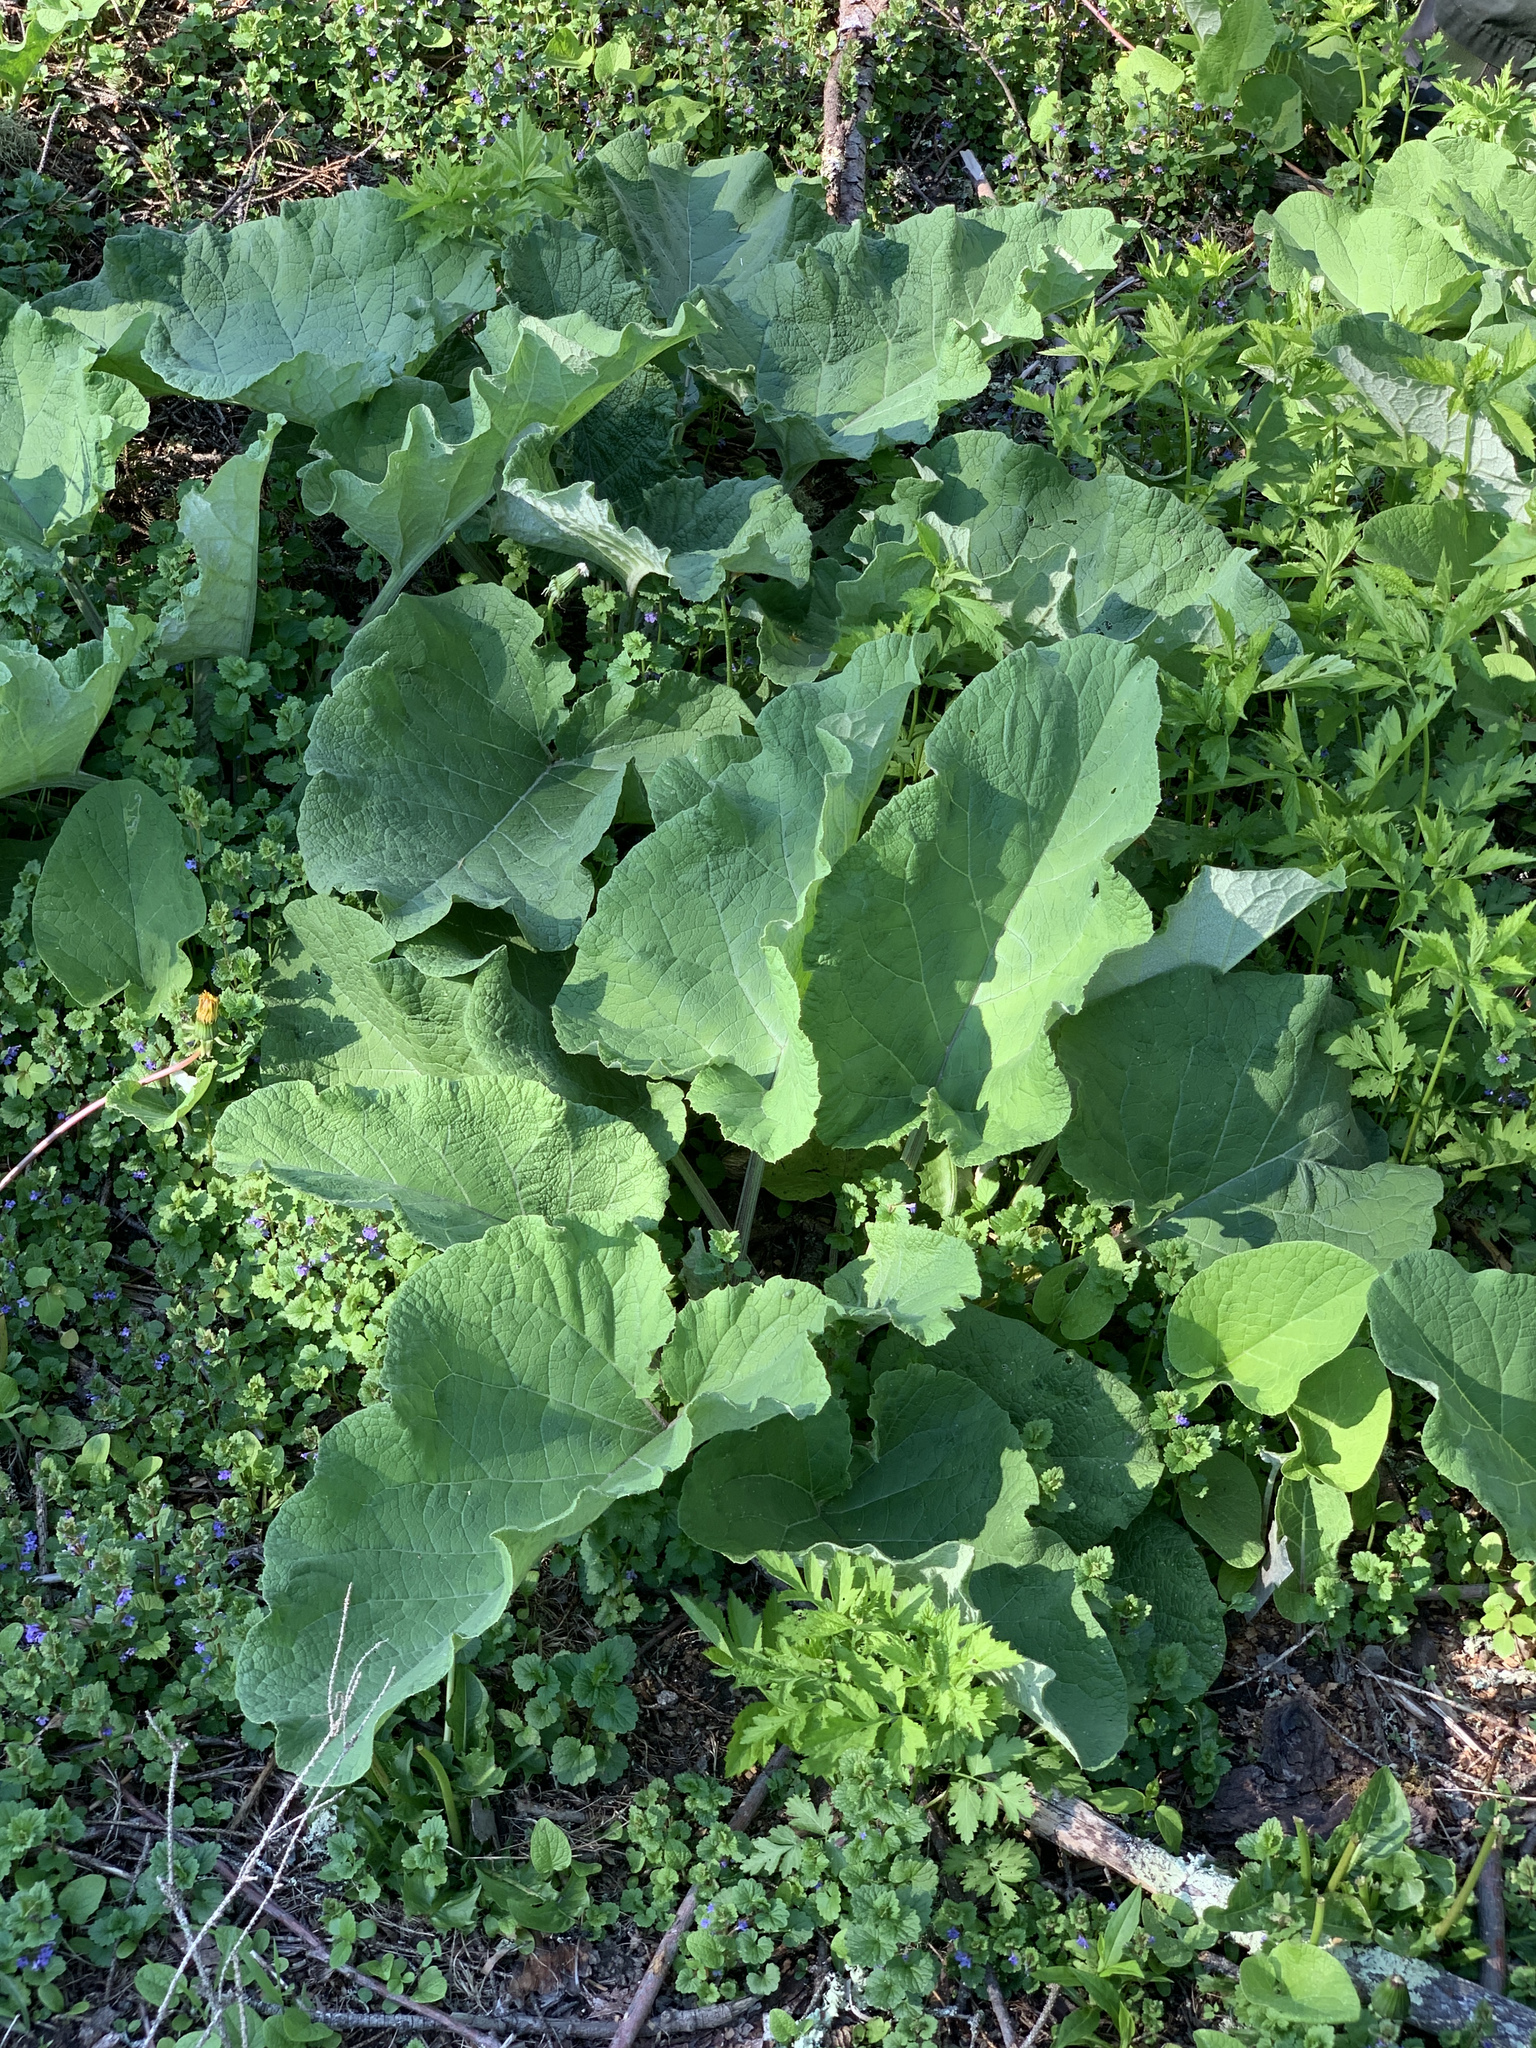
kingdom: Plantae
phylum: Tracheophyta
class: Magnoliopsida
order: Asterales
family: Asteraceae
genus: Arctium
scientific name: Arctium
